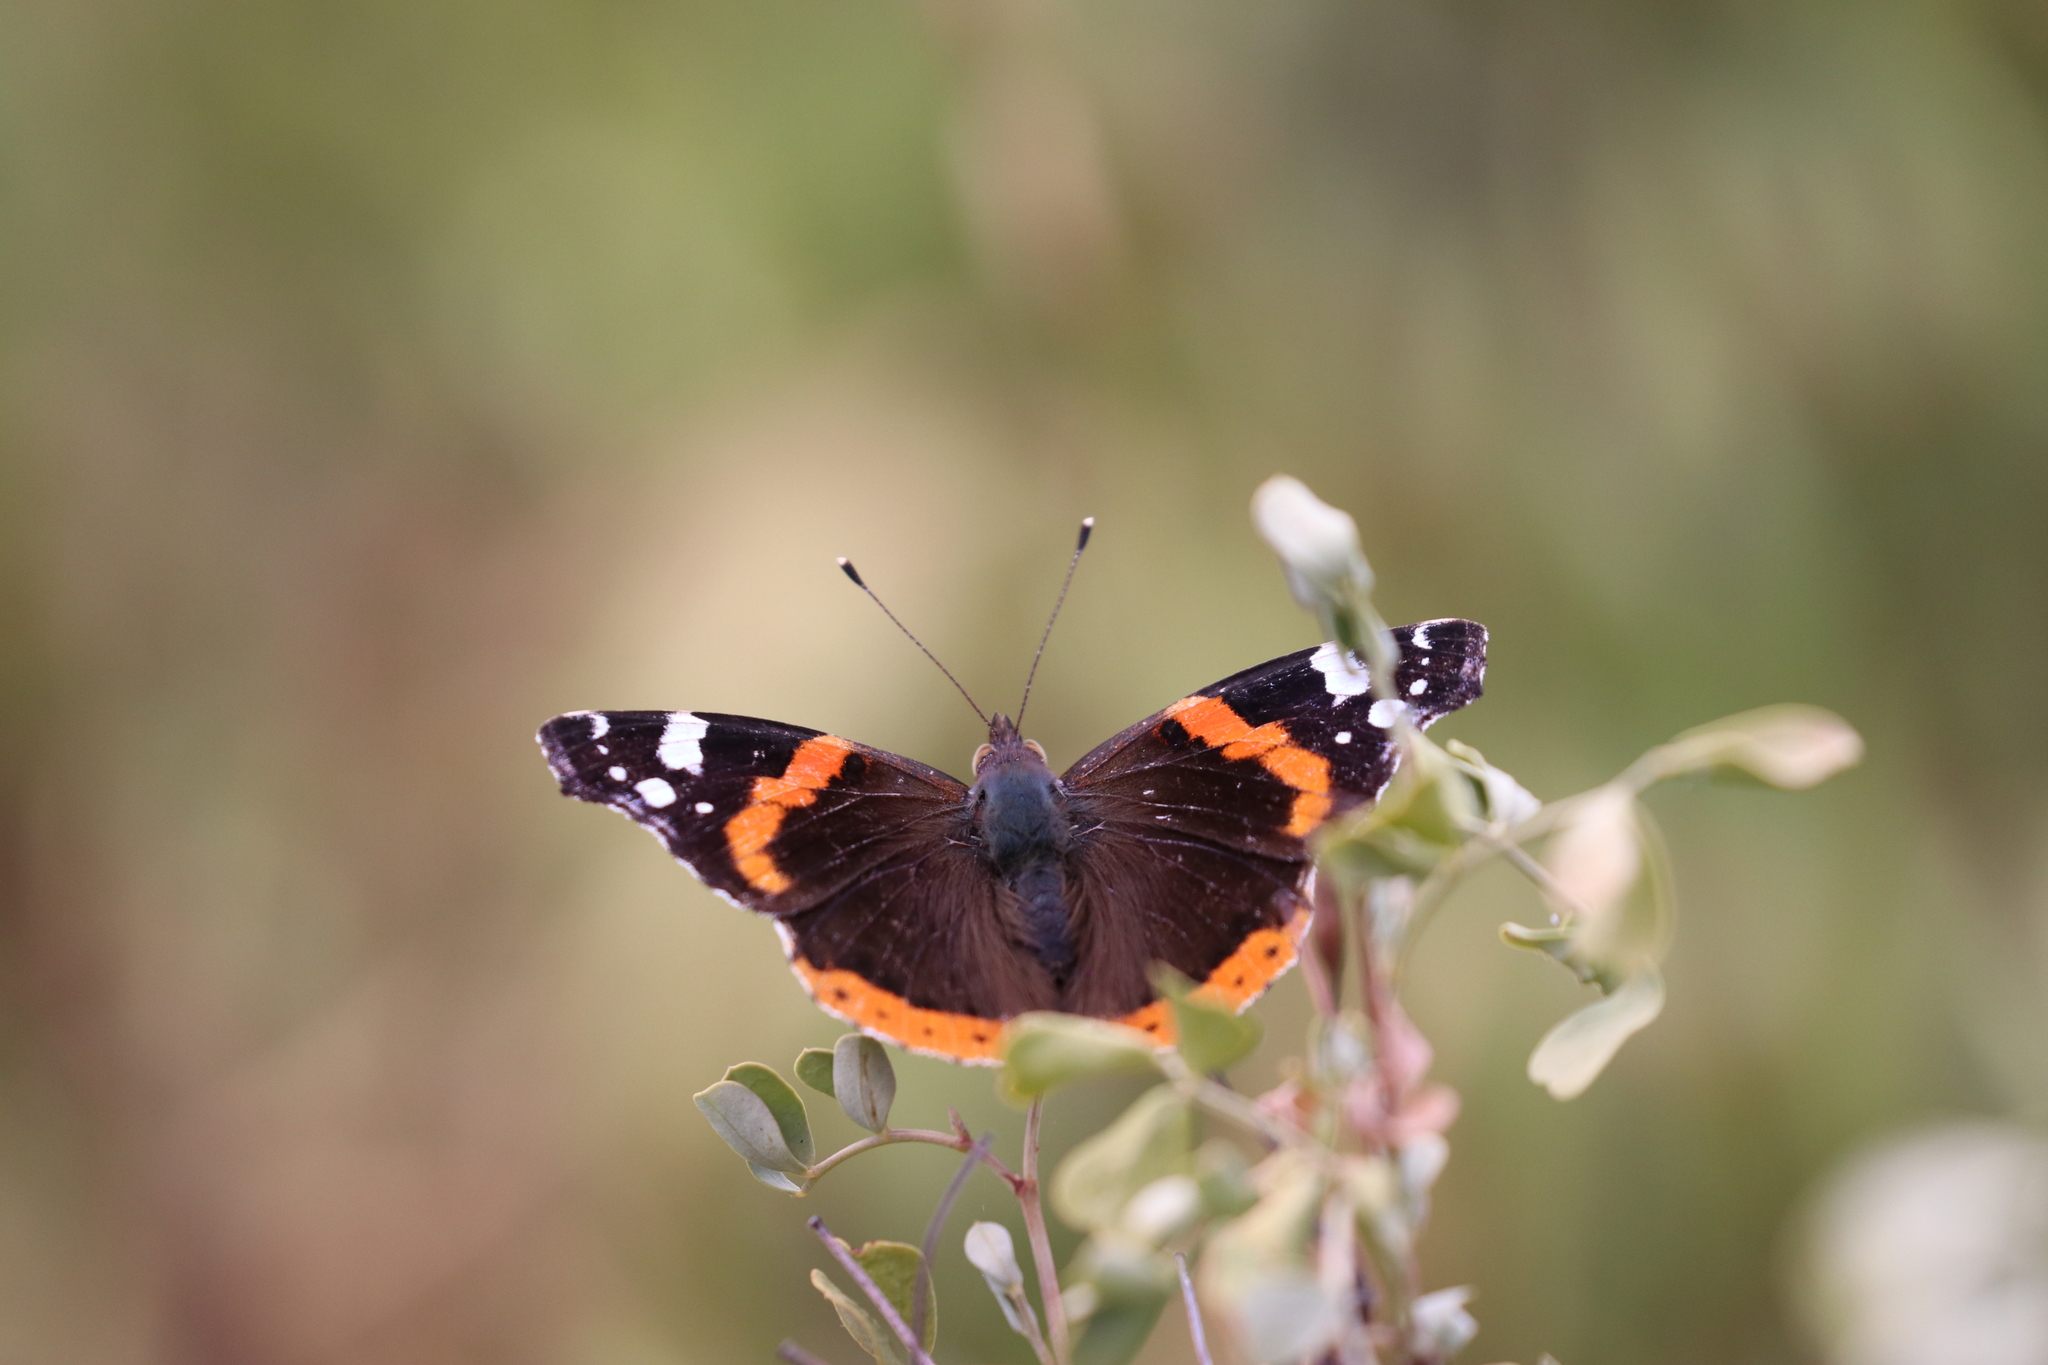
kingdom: Animalia
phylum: Arthropoda
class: Insecta
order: Lepidoptera
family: Nymphalidae
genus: Vanessa
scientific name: Vanessa atalanta
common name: Red admiral
